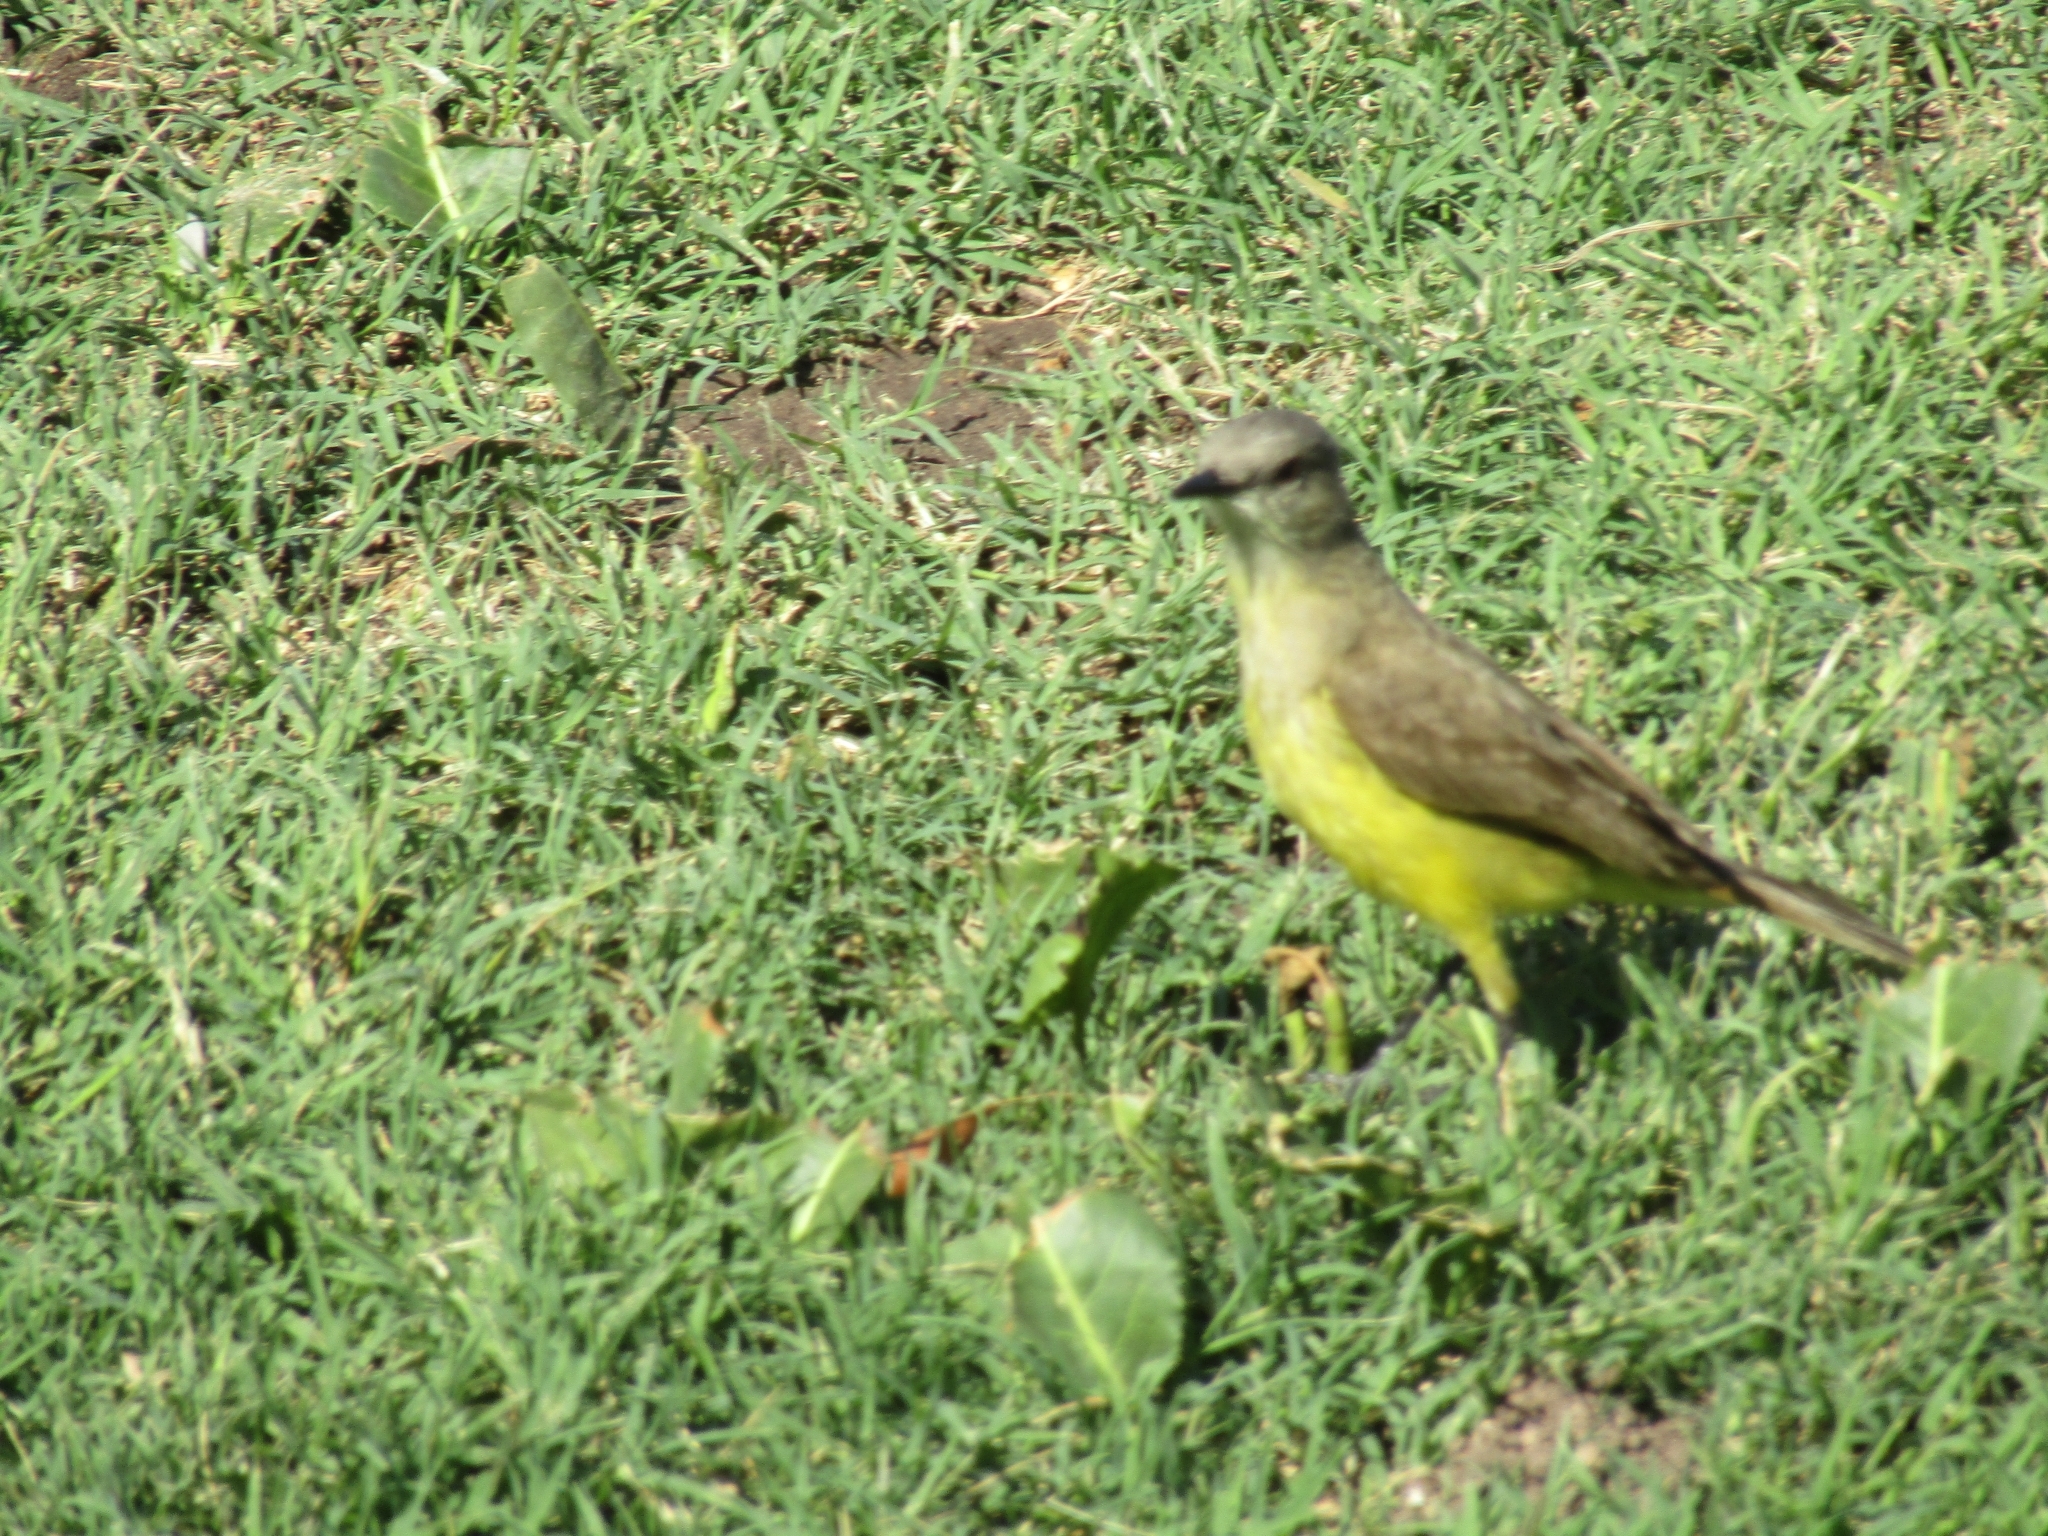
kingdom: Animalia
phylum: Chordata
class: Aves
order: Passeriformes
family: Tyrannidae
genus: Machetornis
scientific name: Machetornis rixosa
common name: Cattle tyrant
